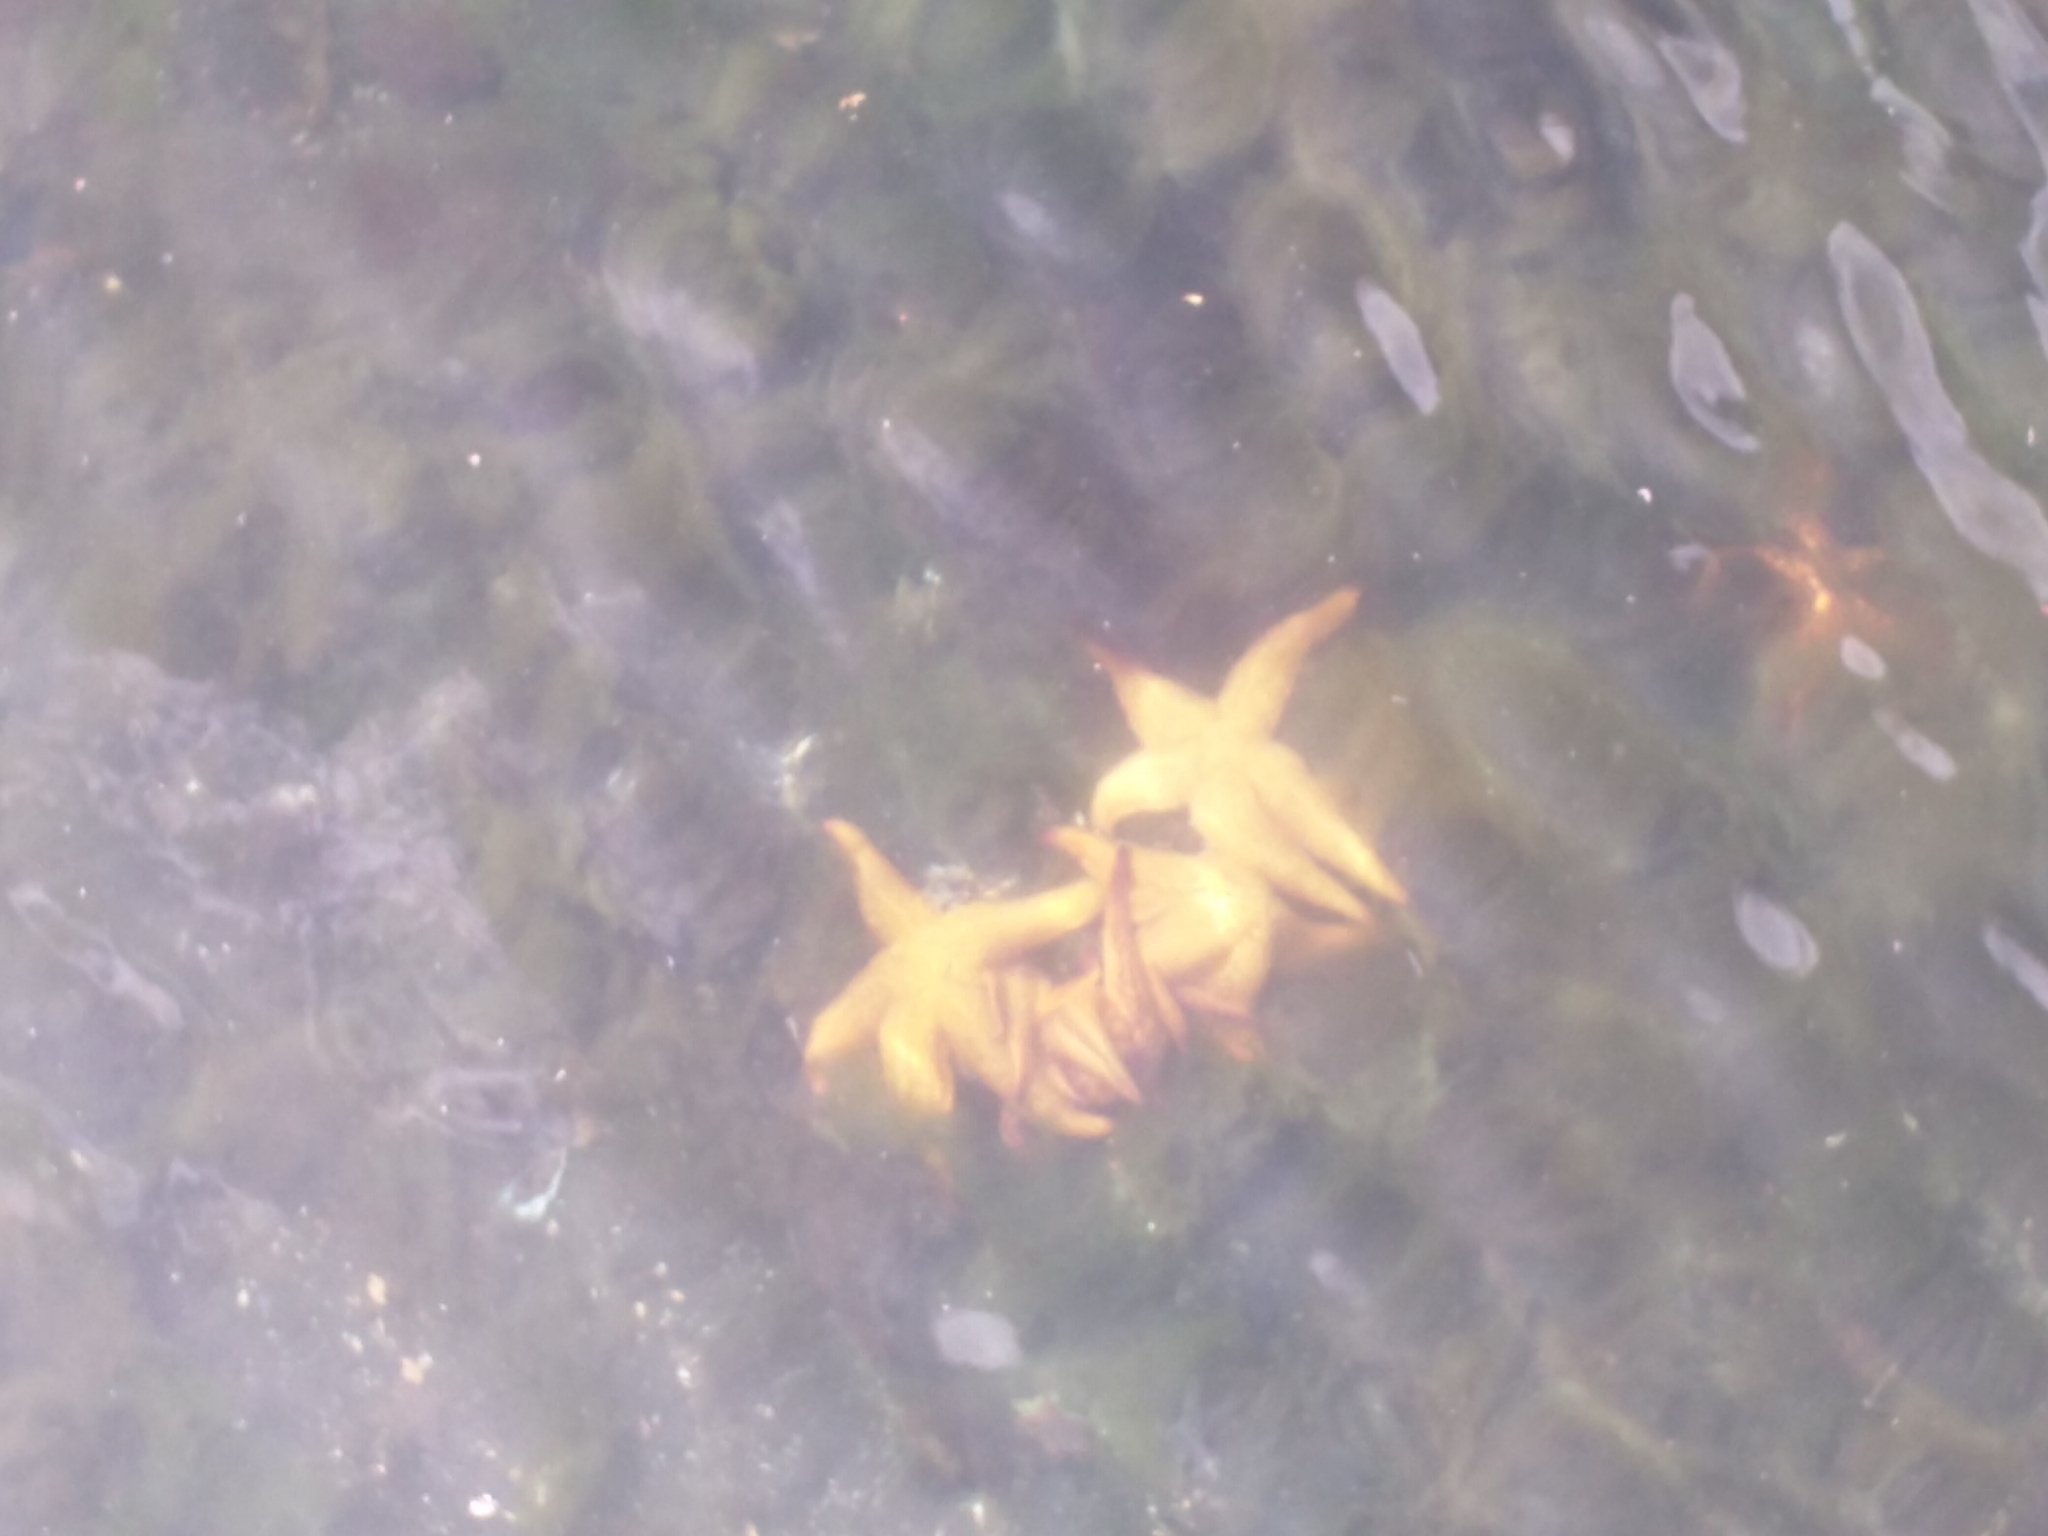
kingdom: Animalia
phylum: Echinodermata
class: Asteroidea
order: Forcipulatida
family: Asteriidae
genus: Asterias
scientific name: Asterias amurensis
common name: Flat-bottomed star
